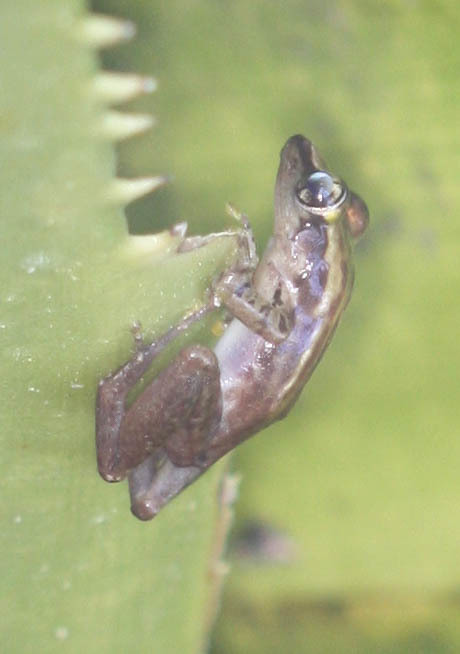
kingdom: Animalia
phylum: Chordata
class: Amphibia
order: Anura
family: Mantellidae
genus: Guibemantis
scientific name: Guibemantis bicalcaratus
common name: Sainte marie madagascar frog
